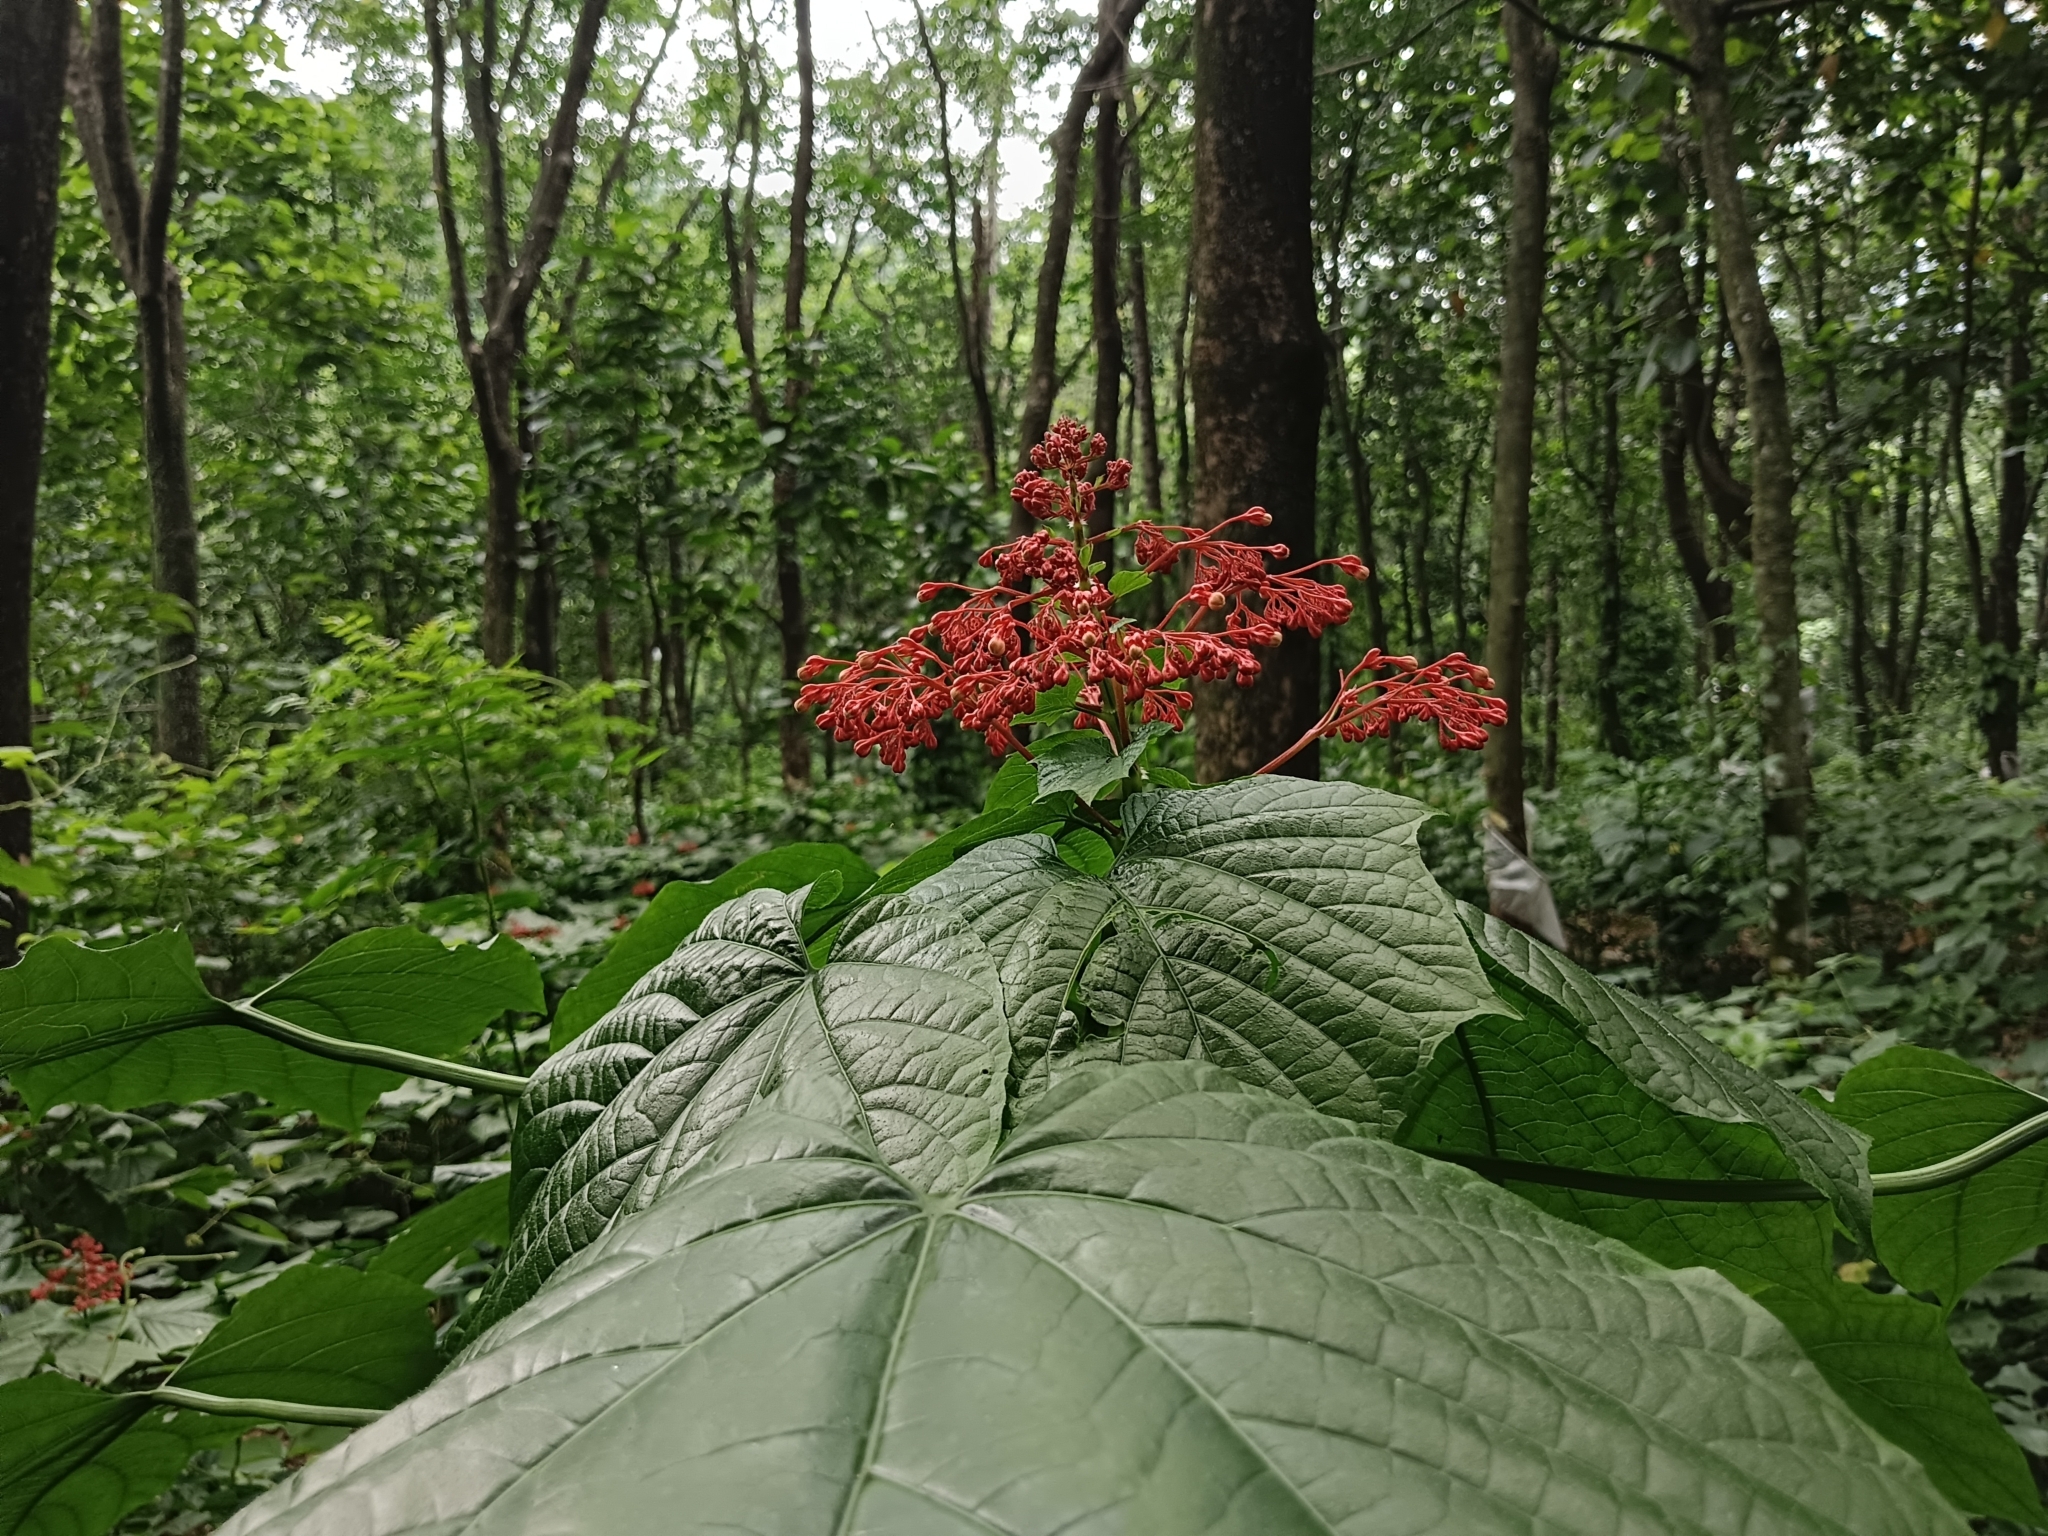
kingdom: Plantae
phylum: Tracheophyta
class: Magnoliopsida
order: Lamiales
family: Lamiaceae
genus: Clerodendrum
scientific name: Clerodendrum paniculatum
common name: Pagoda-flower
